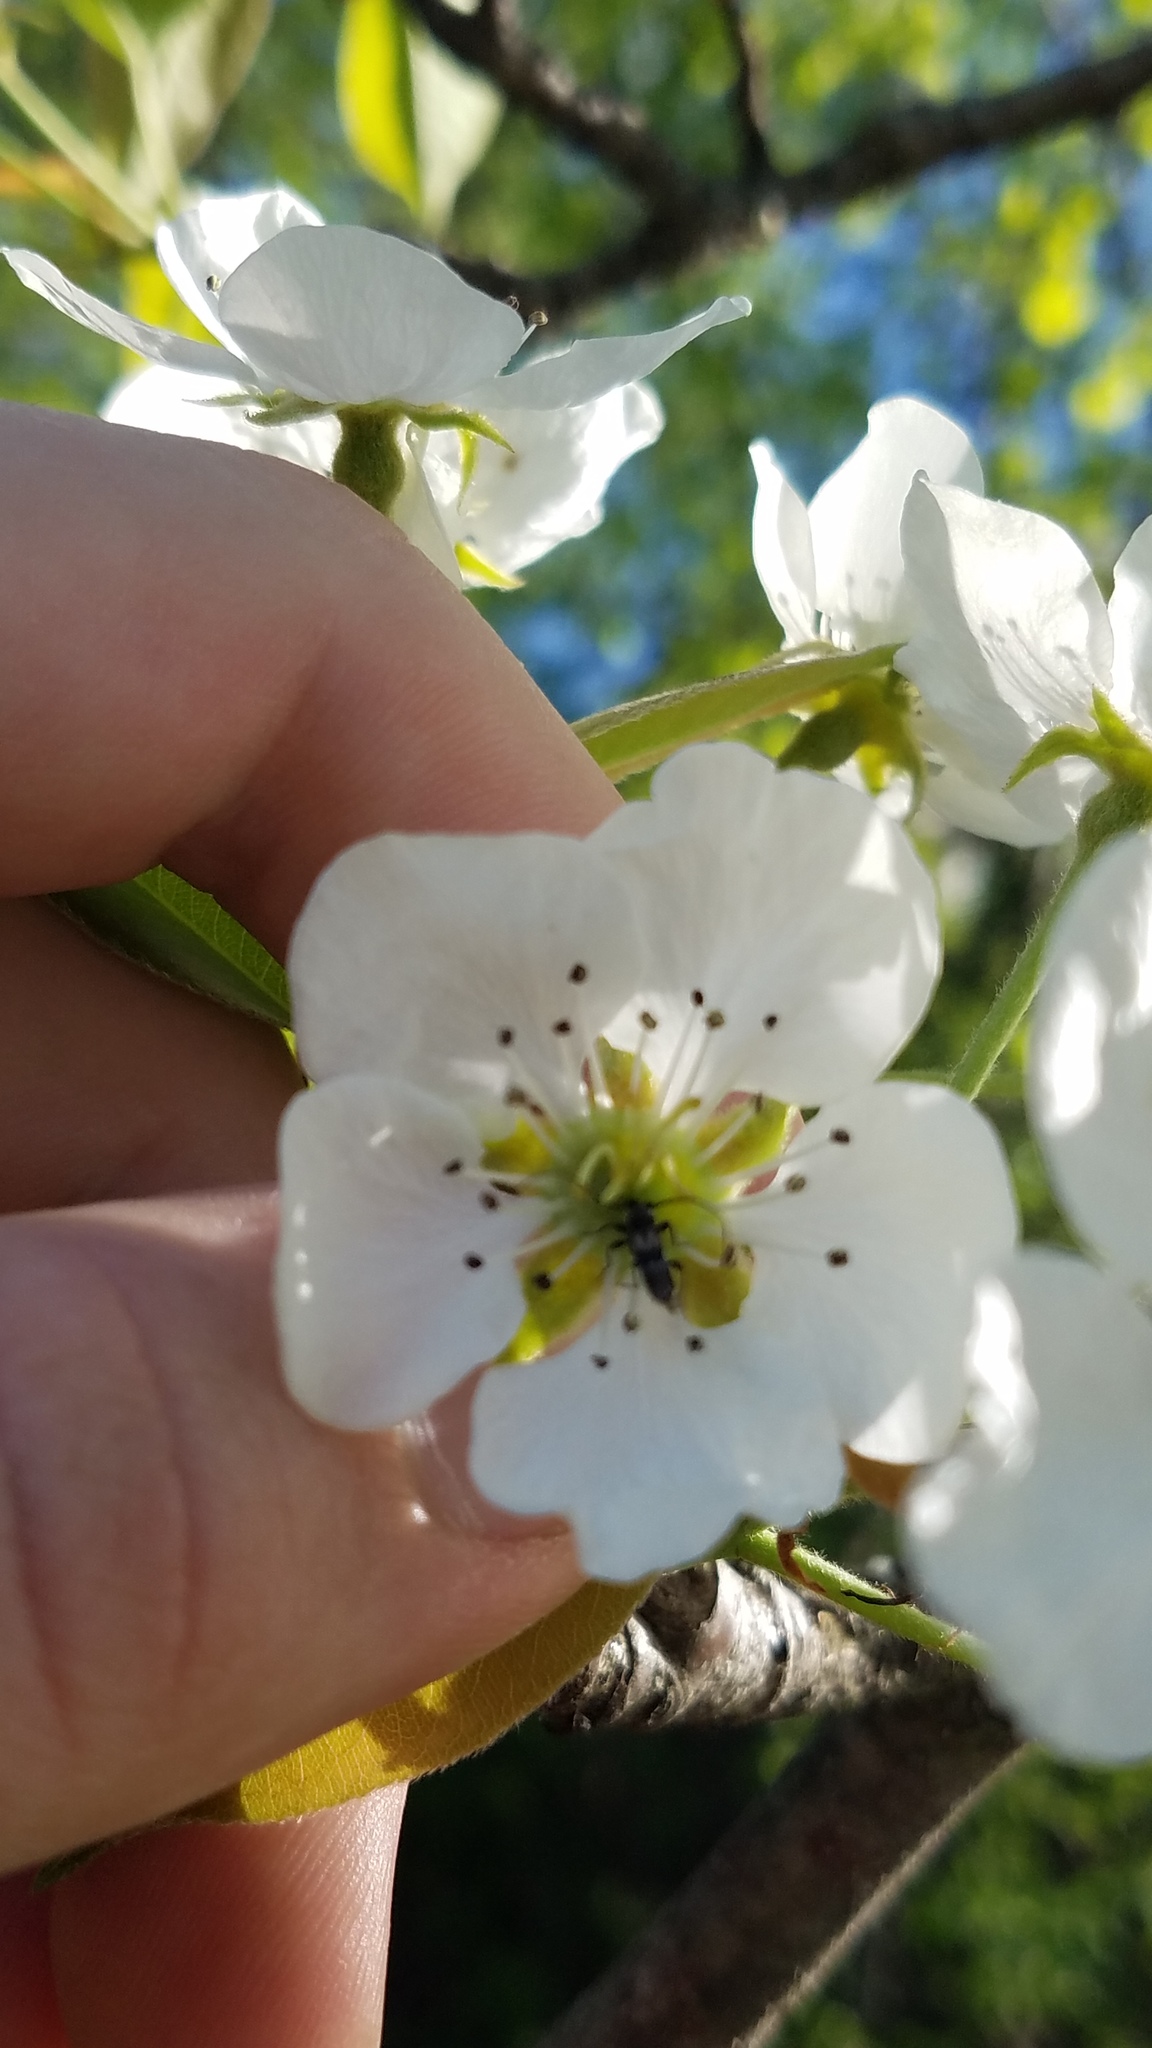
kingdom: Animalia
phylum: Arthropoda
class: Insecta
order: Coleoptera
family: Cerambycidae
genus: Molorchus
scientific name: Molorchus bimaculatus
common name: Bimaculate longhorn beetle
